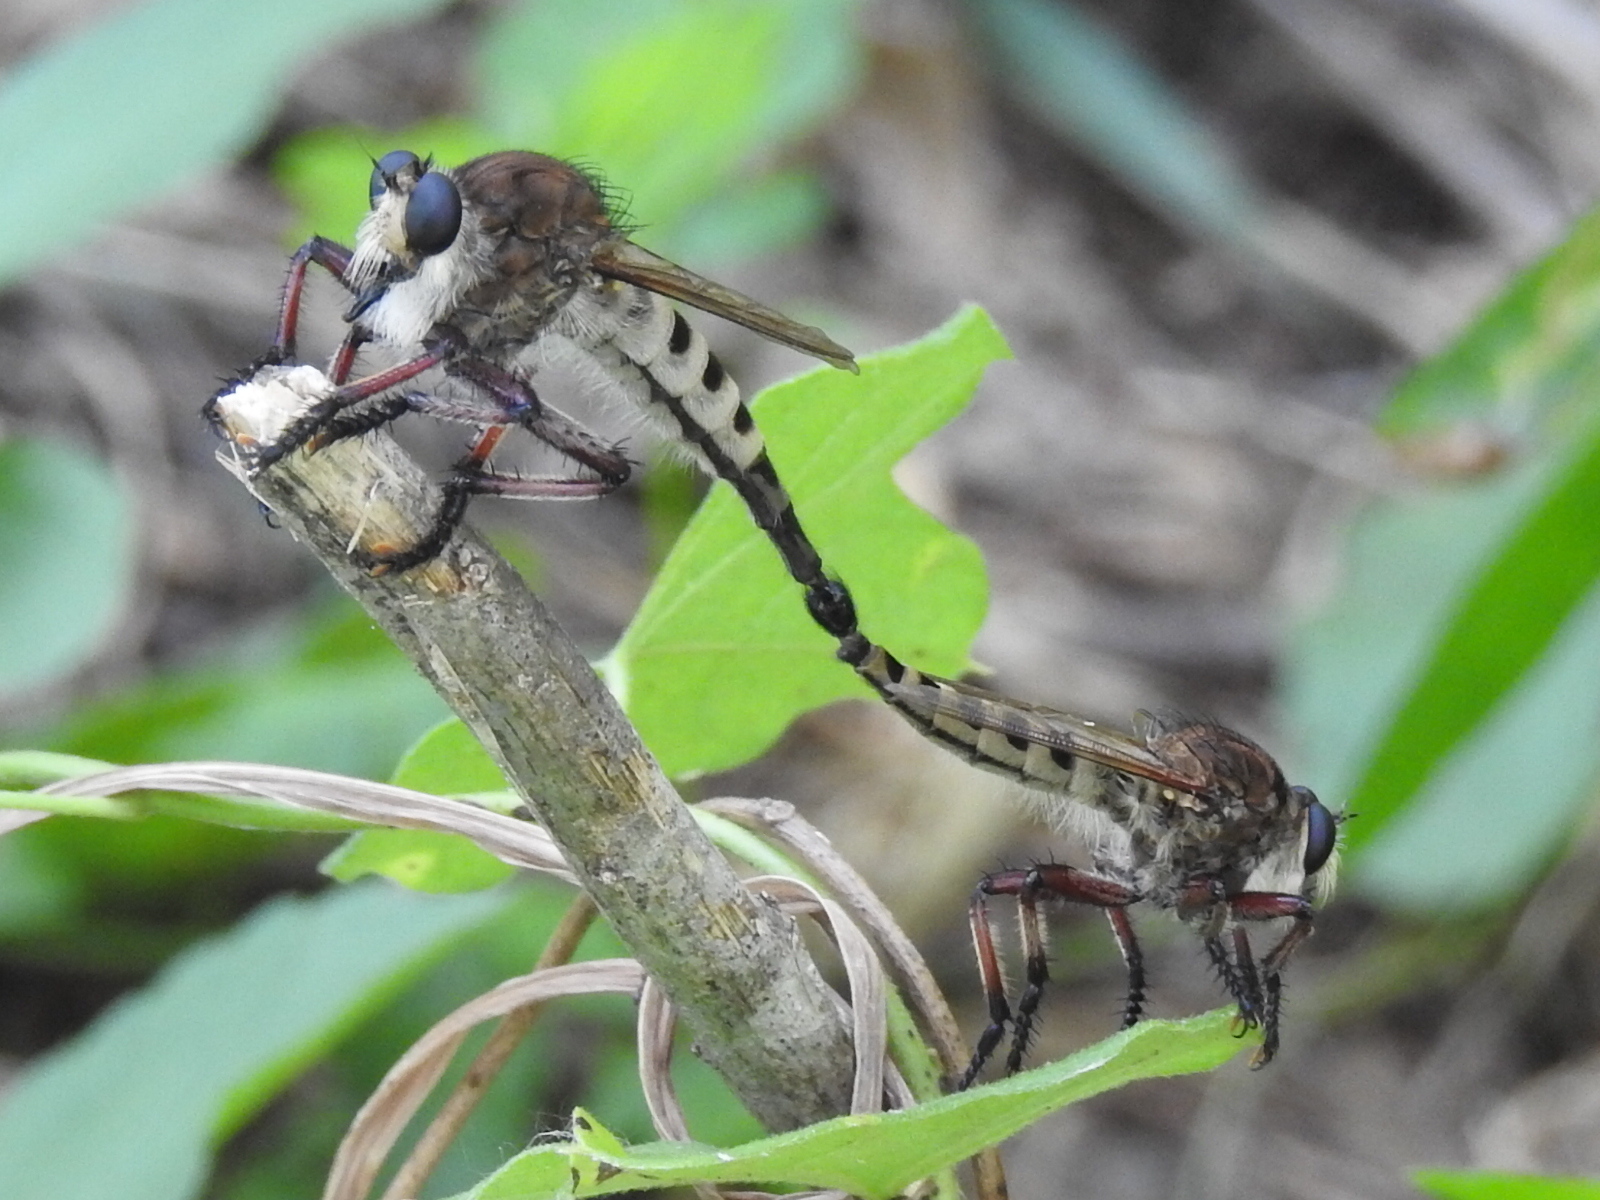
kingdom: Animalia
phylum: Arthropoda
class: Insecta
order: Diptera
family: Asilidae
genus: Promachus
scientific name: Promachus hinei
